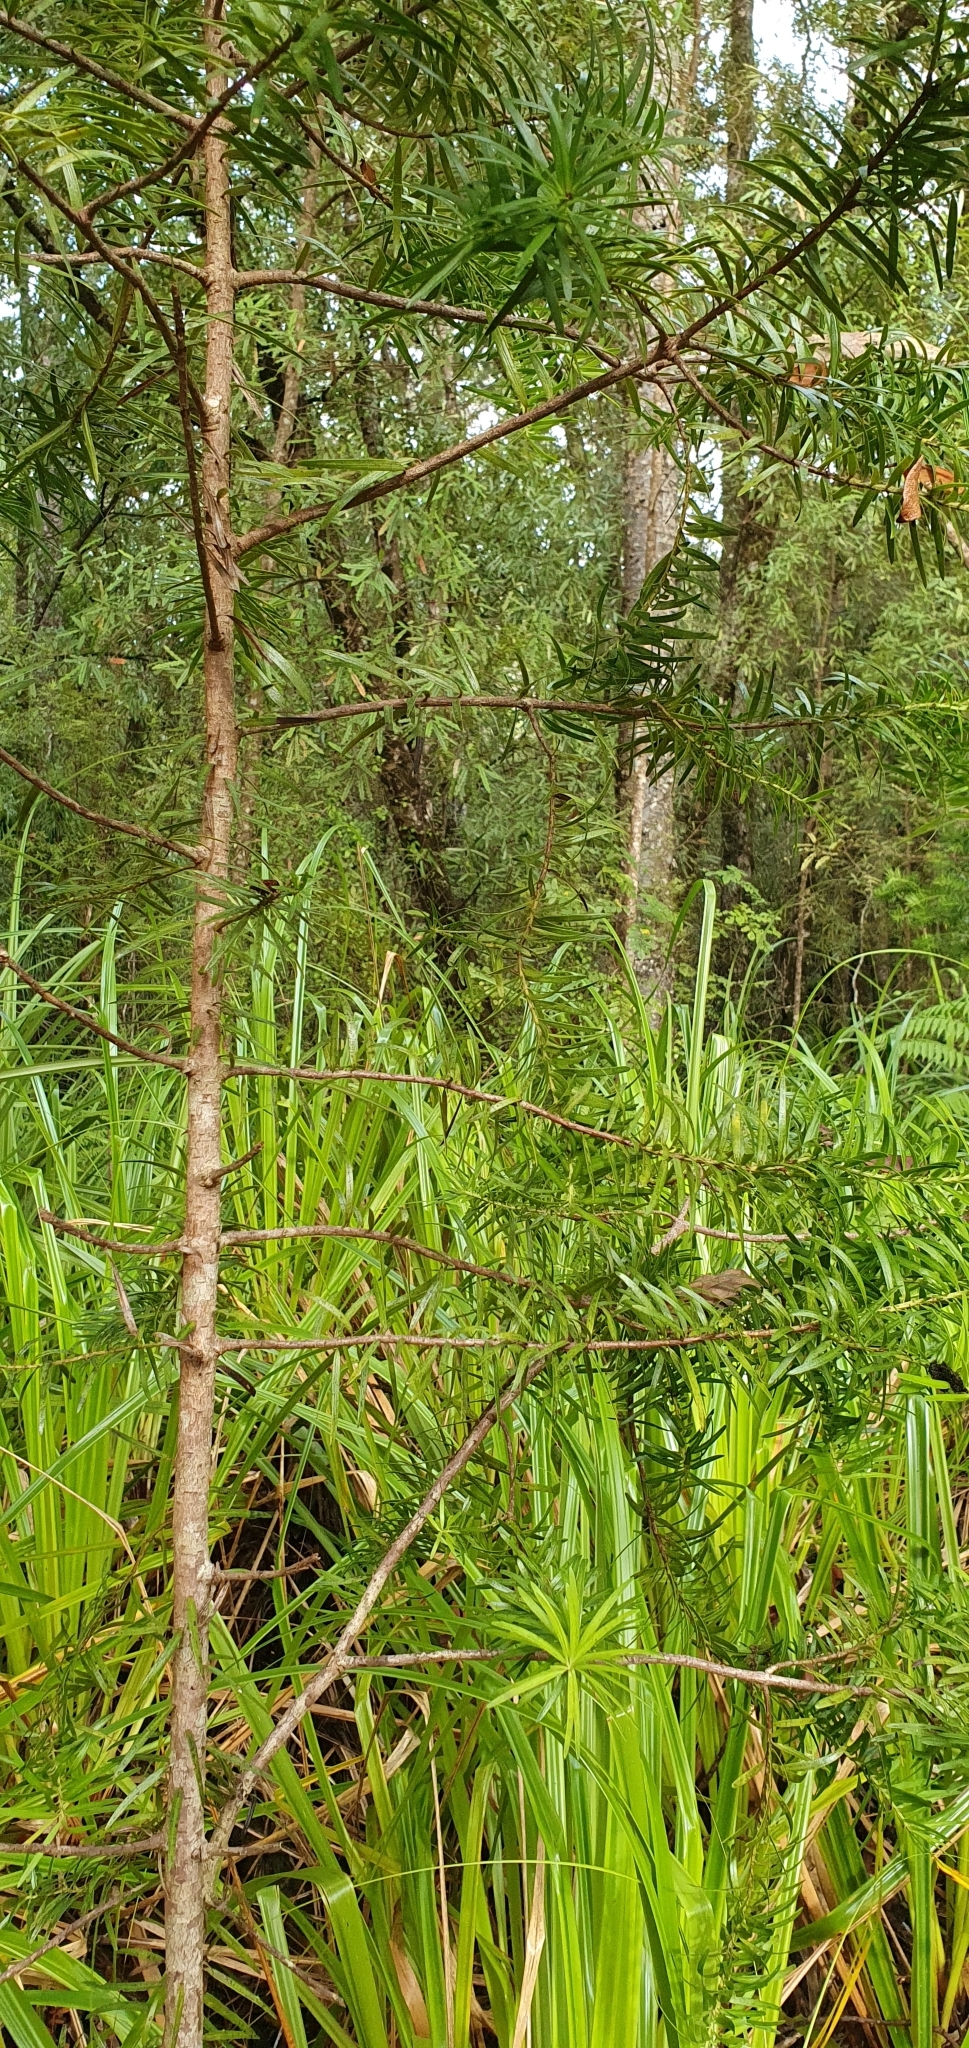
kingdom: Plantae
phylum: Tracheophyta
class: Pinopsida
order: Pinales
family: Podocarpaceae
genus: Halocarpus
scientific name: Halocarpus kirkii
